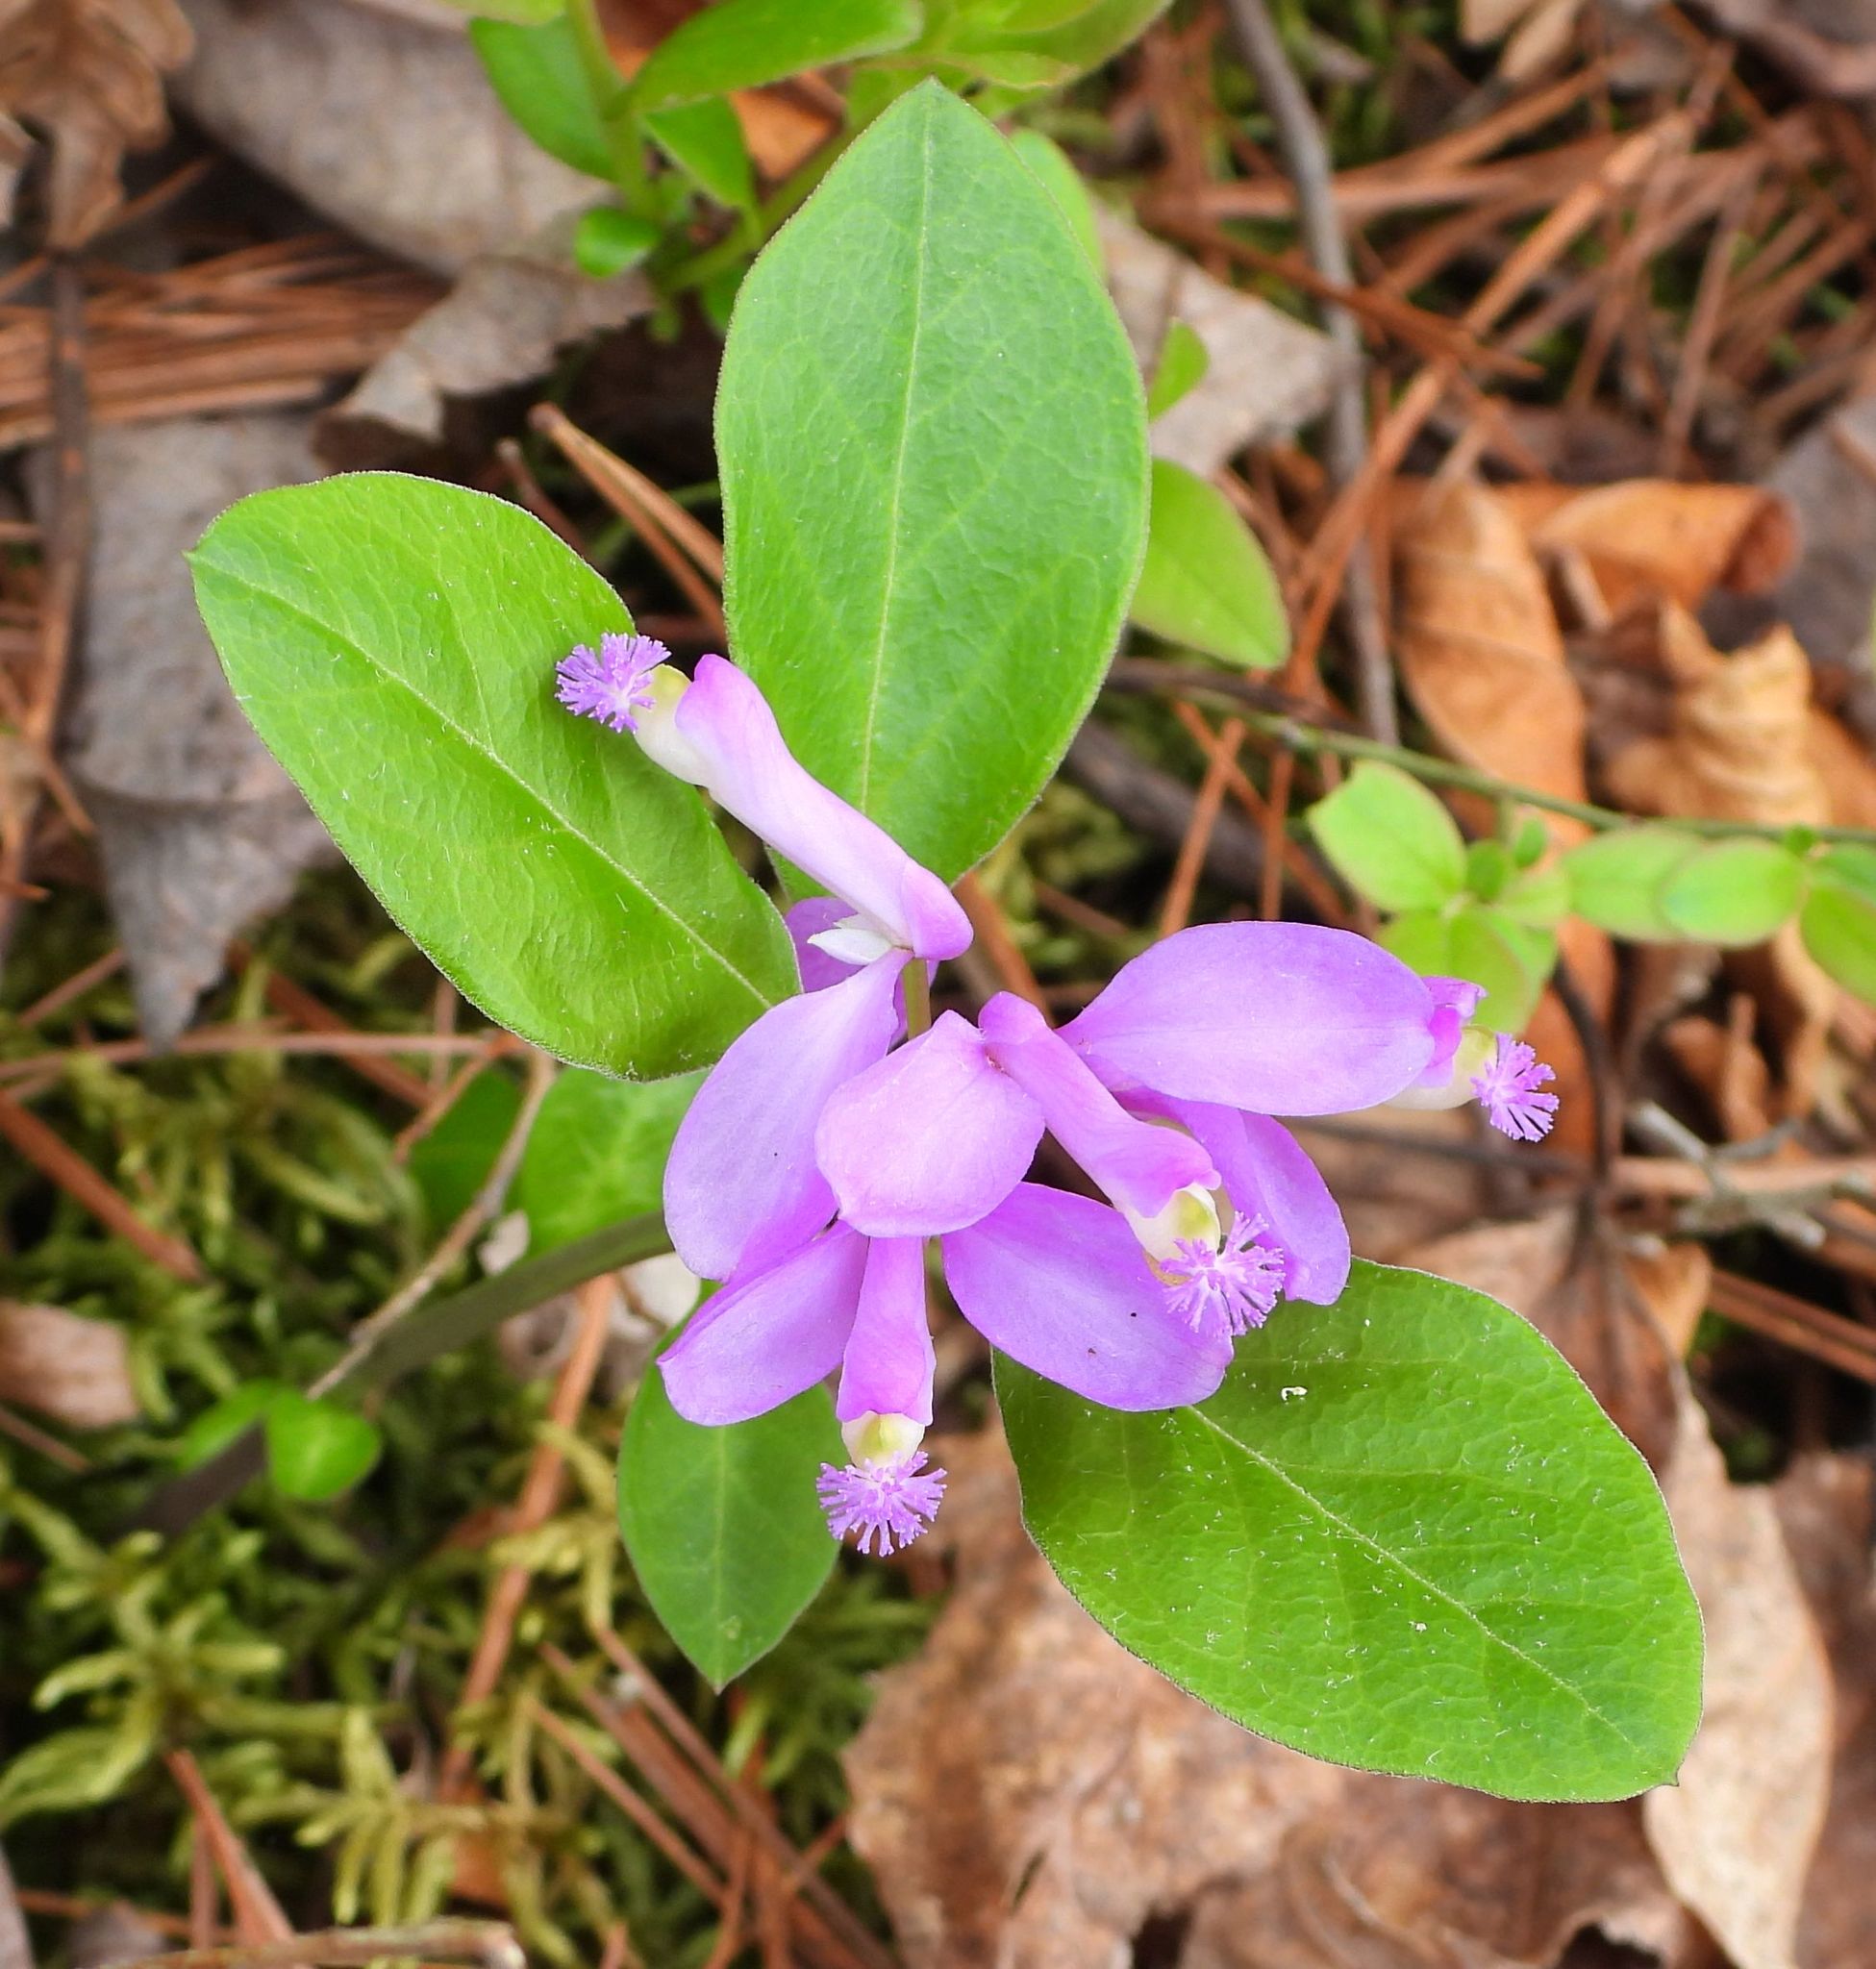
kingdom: Plantae
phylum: Tracheophyta
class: Magnoliopsida
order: Fabales
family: Polygalaceae
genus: Polygaloides
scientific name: Polygaloides paucifolia
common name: Bird-on-the-wing
